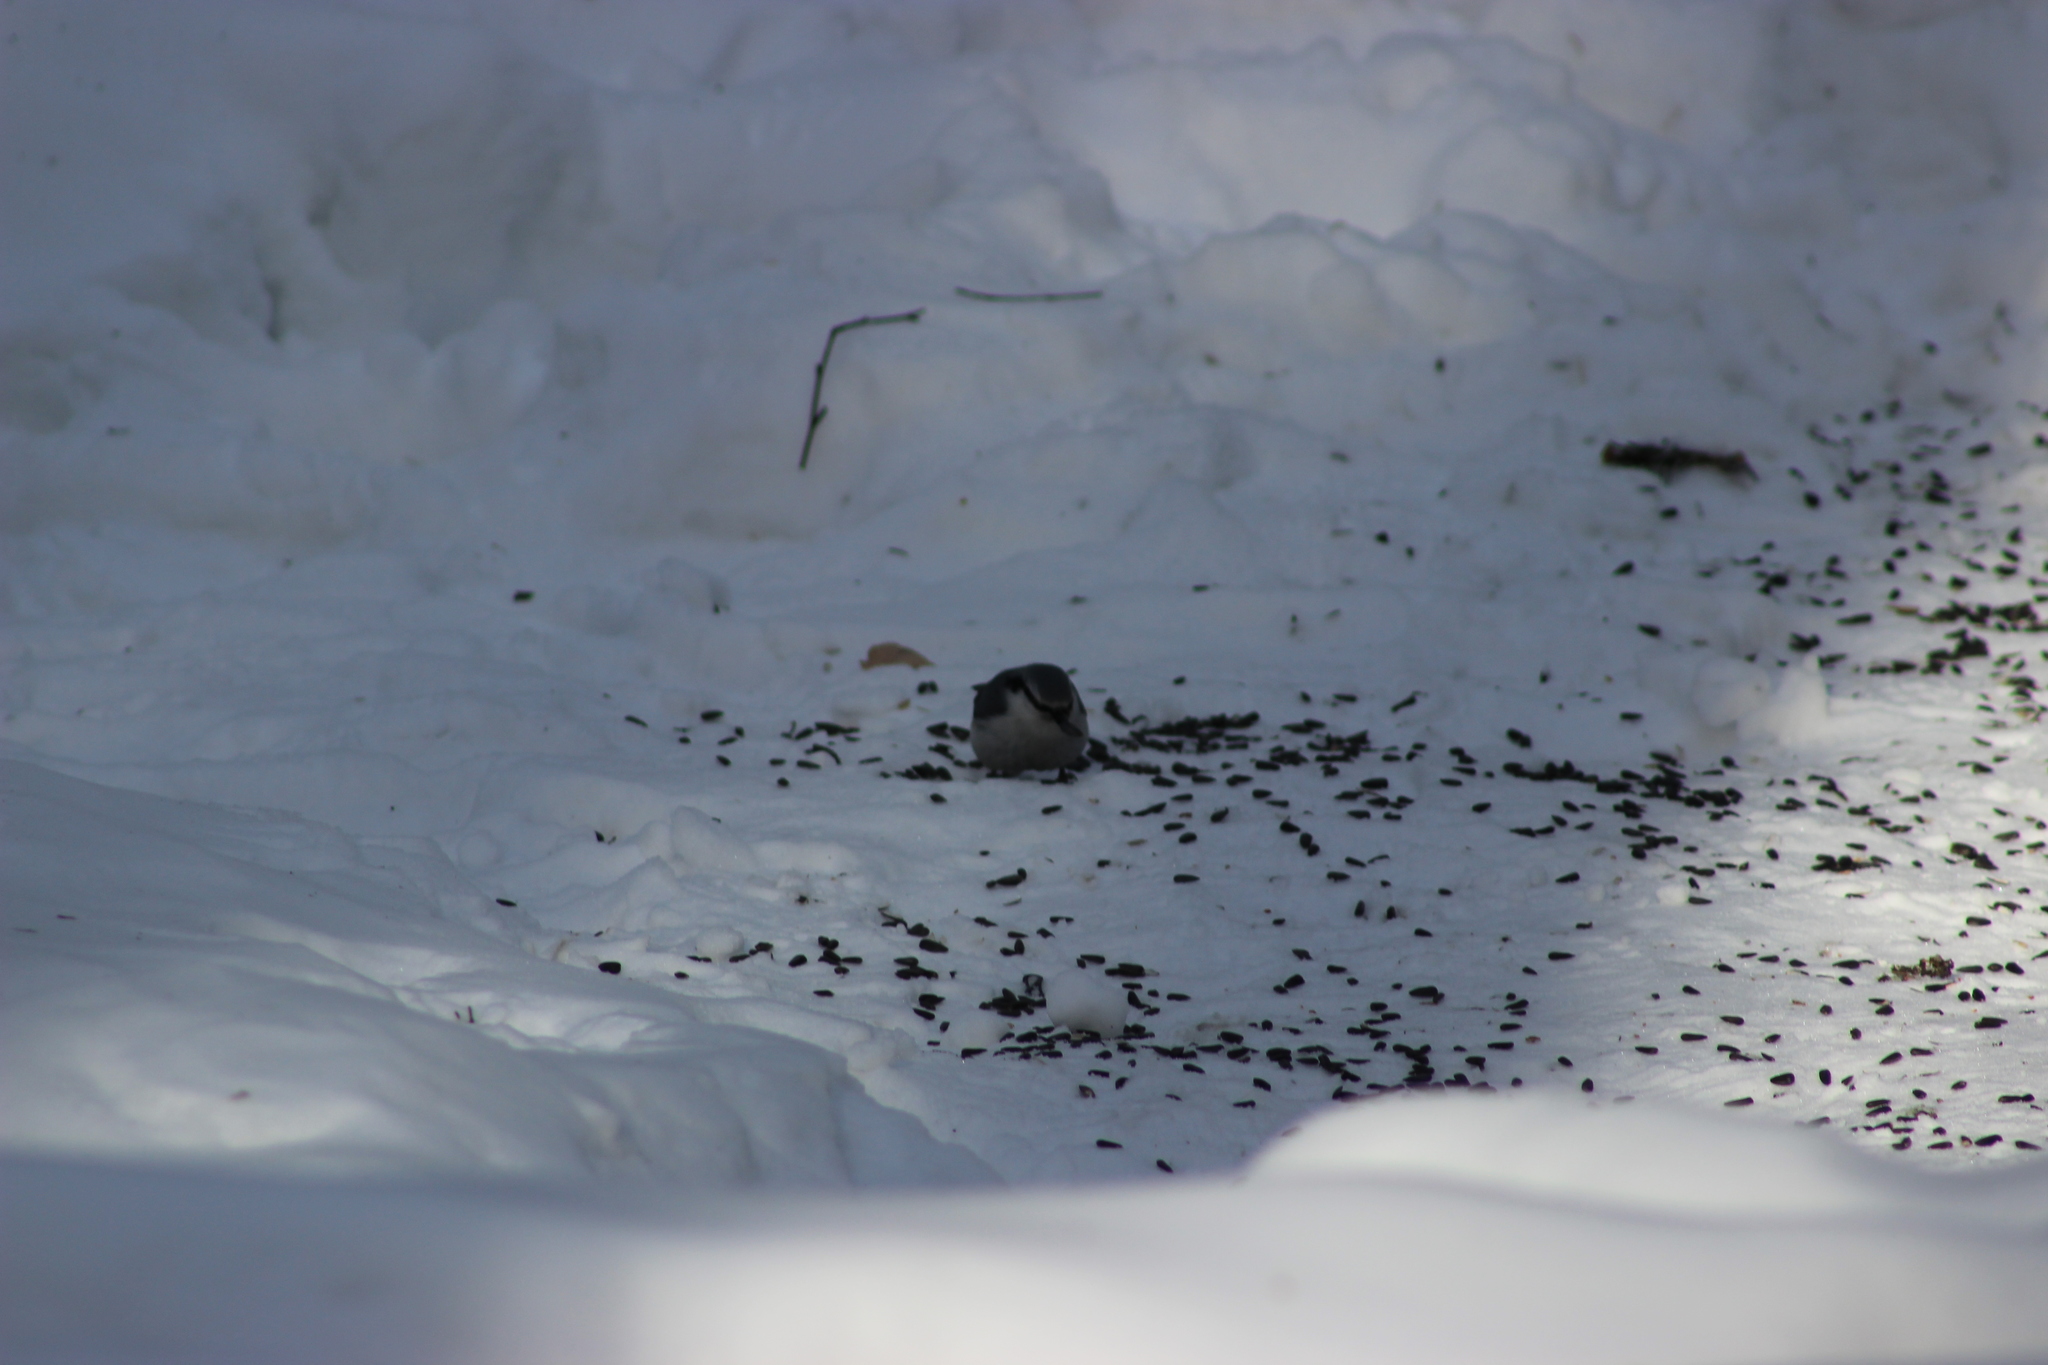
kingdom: Animalia
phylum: Chordata
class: Aves
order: Passeriformes
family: Sittidae
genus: Sitta
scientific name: Sitta europaea
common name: Eurasian nuthatch
